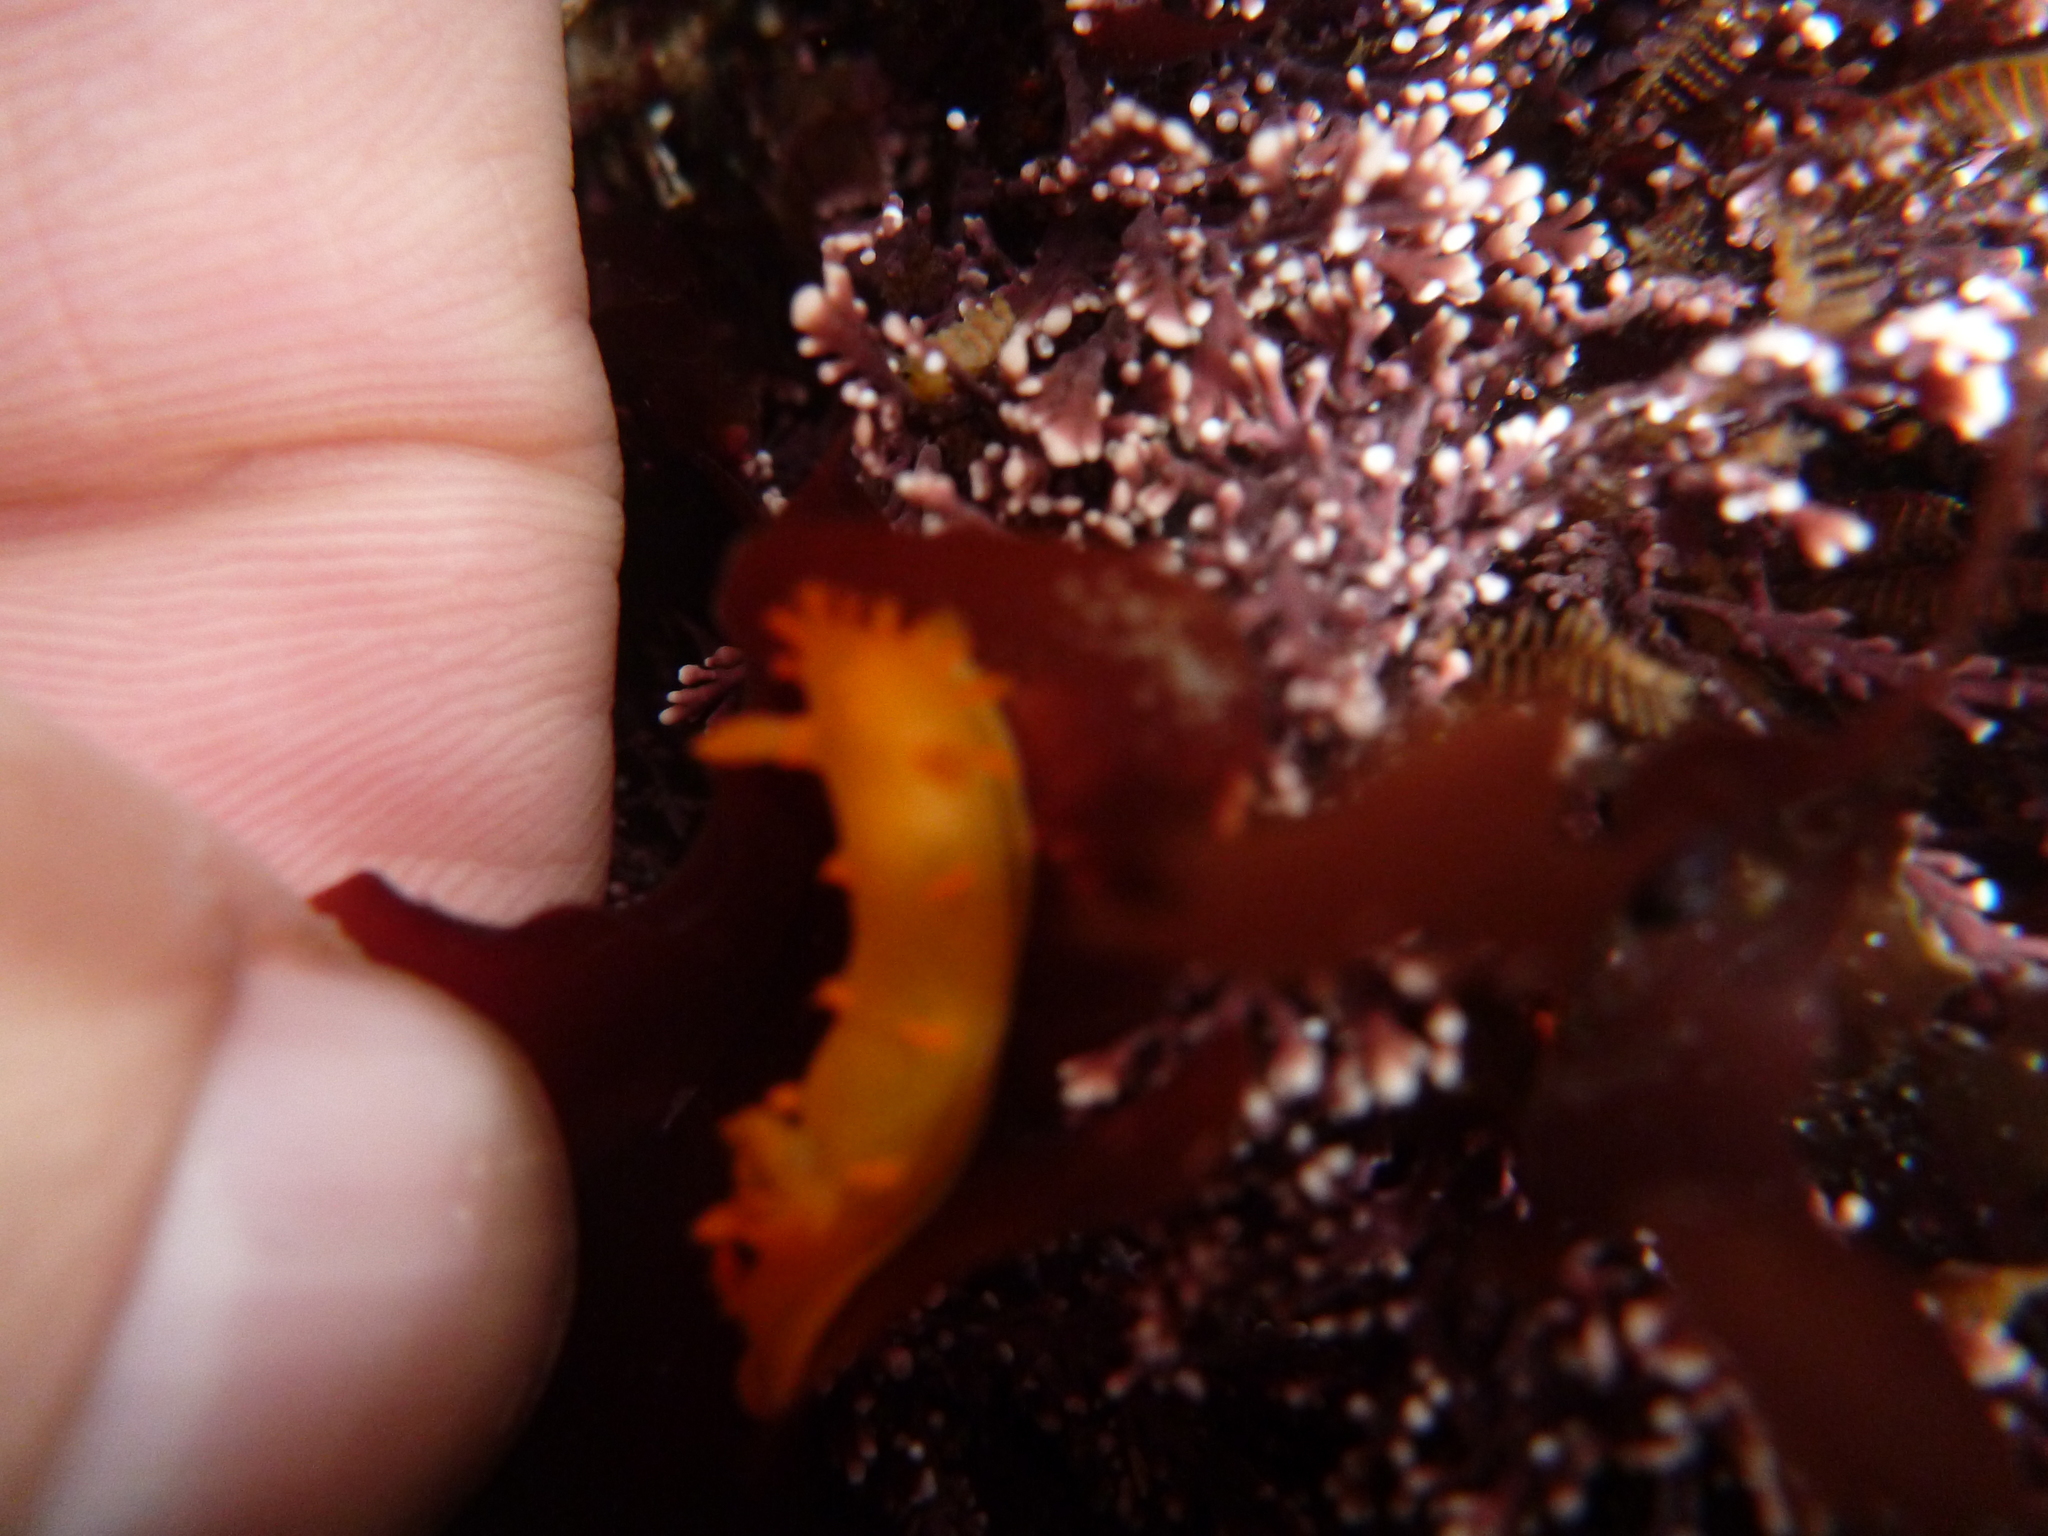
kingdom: Animalia
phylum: Mollusca
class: Gastropoda
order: Nudibranchia
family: Polyceridae
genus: Triopha
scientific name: Triopha maculata
